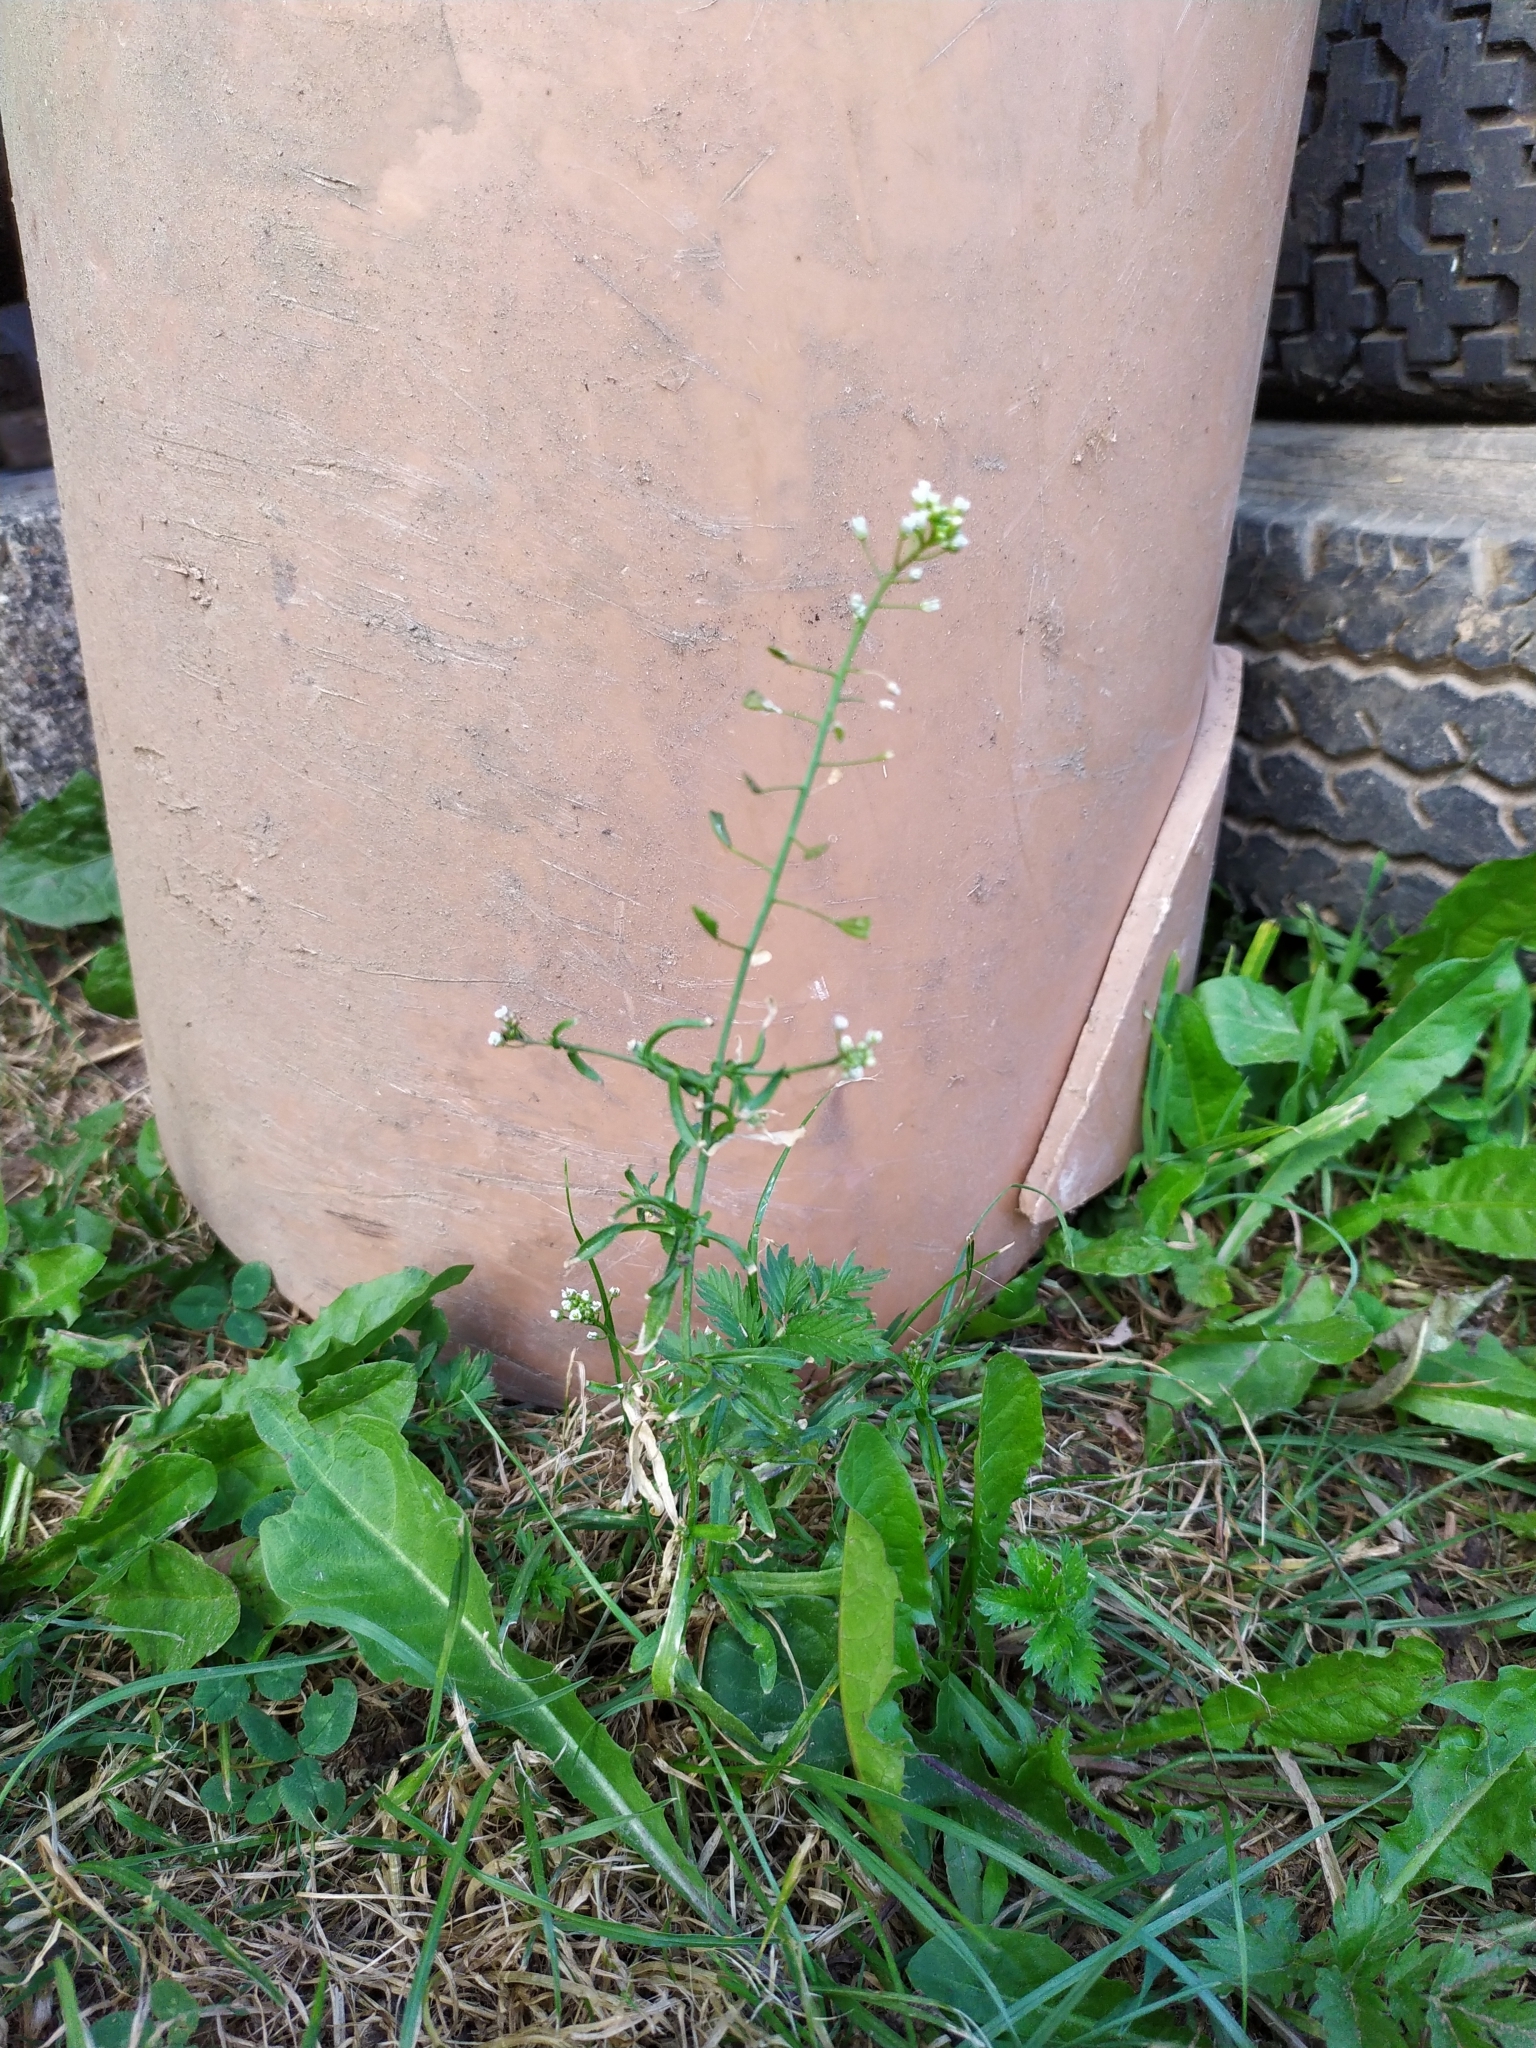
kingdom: Plantae
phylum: Tracheophyta
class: Magnoliopsida
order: Brassicales
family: Brassicaceae
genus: Capsella
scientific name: Capsella bursa-pastoris
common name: Shepherd's purse
